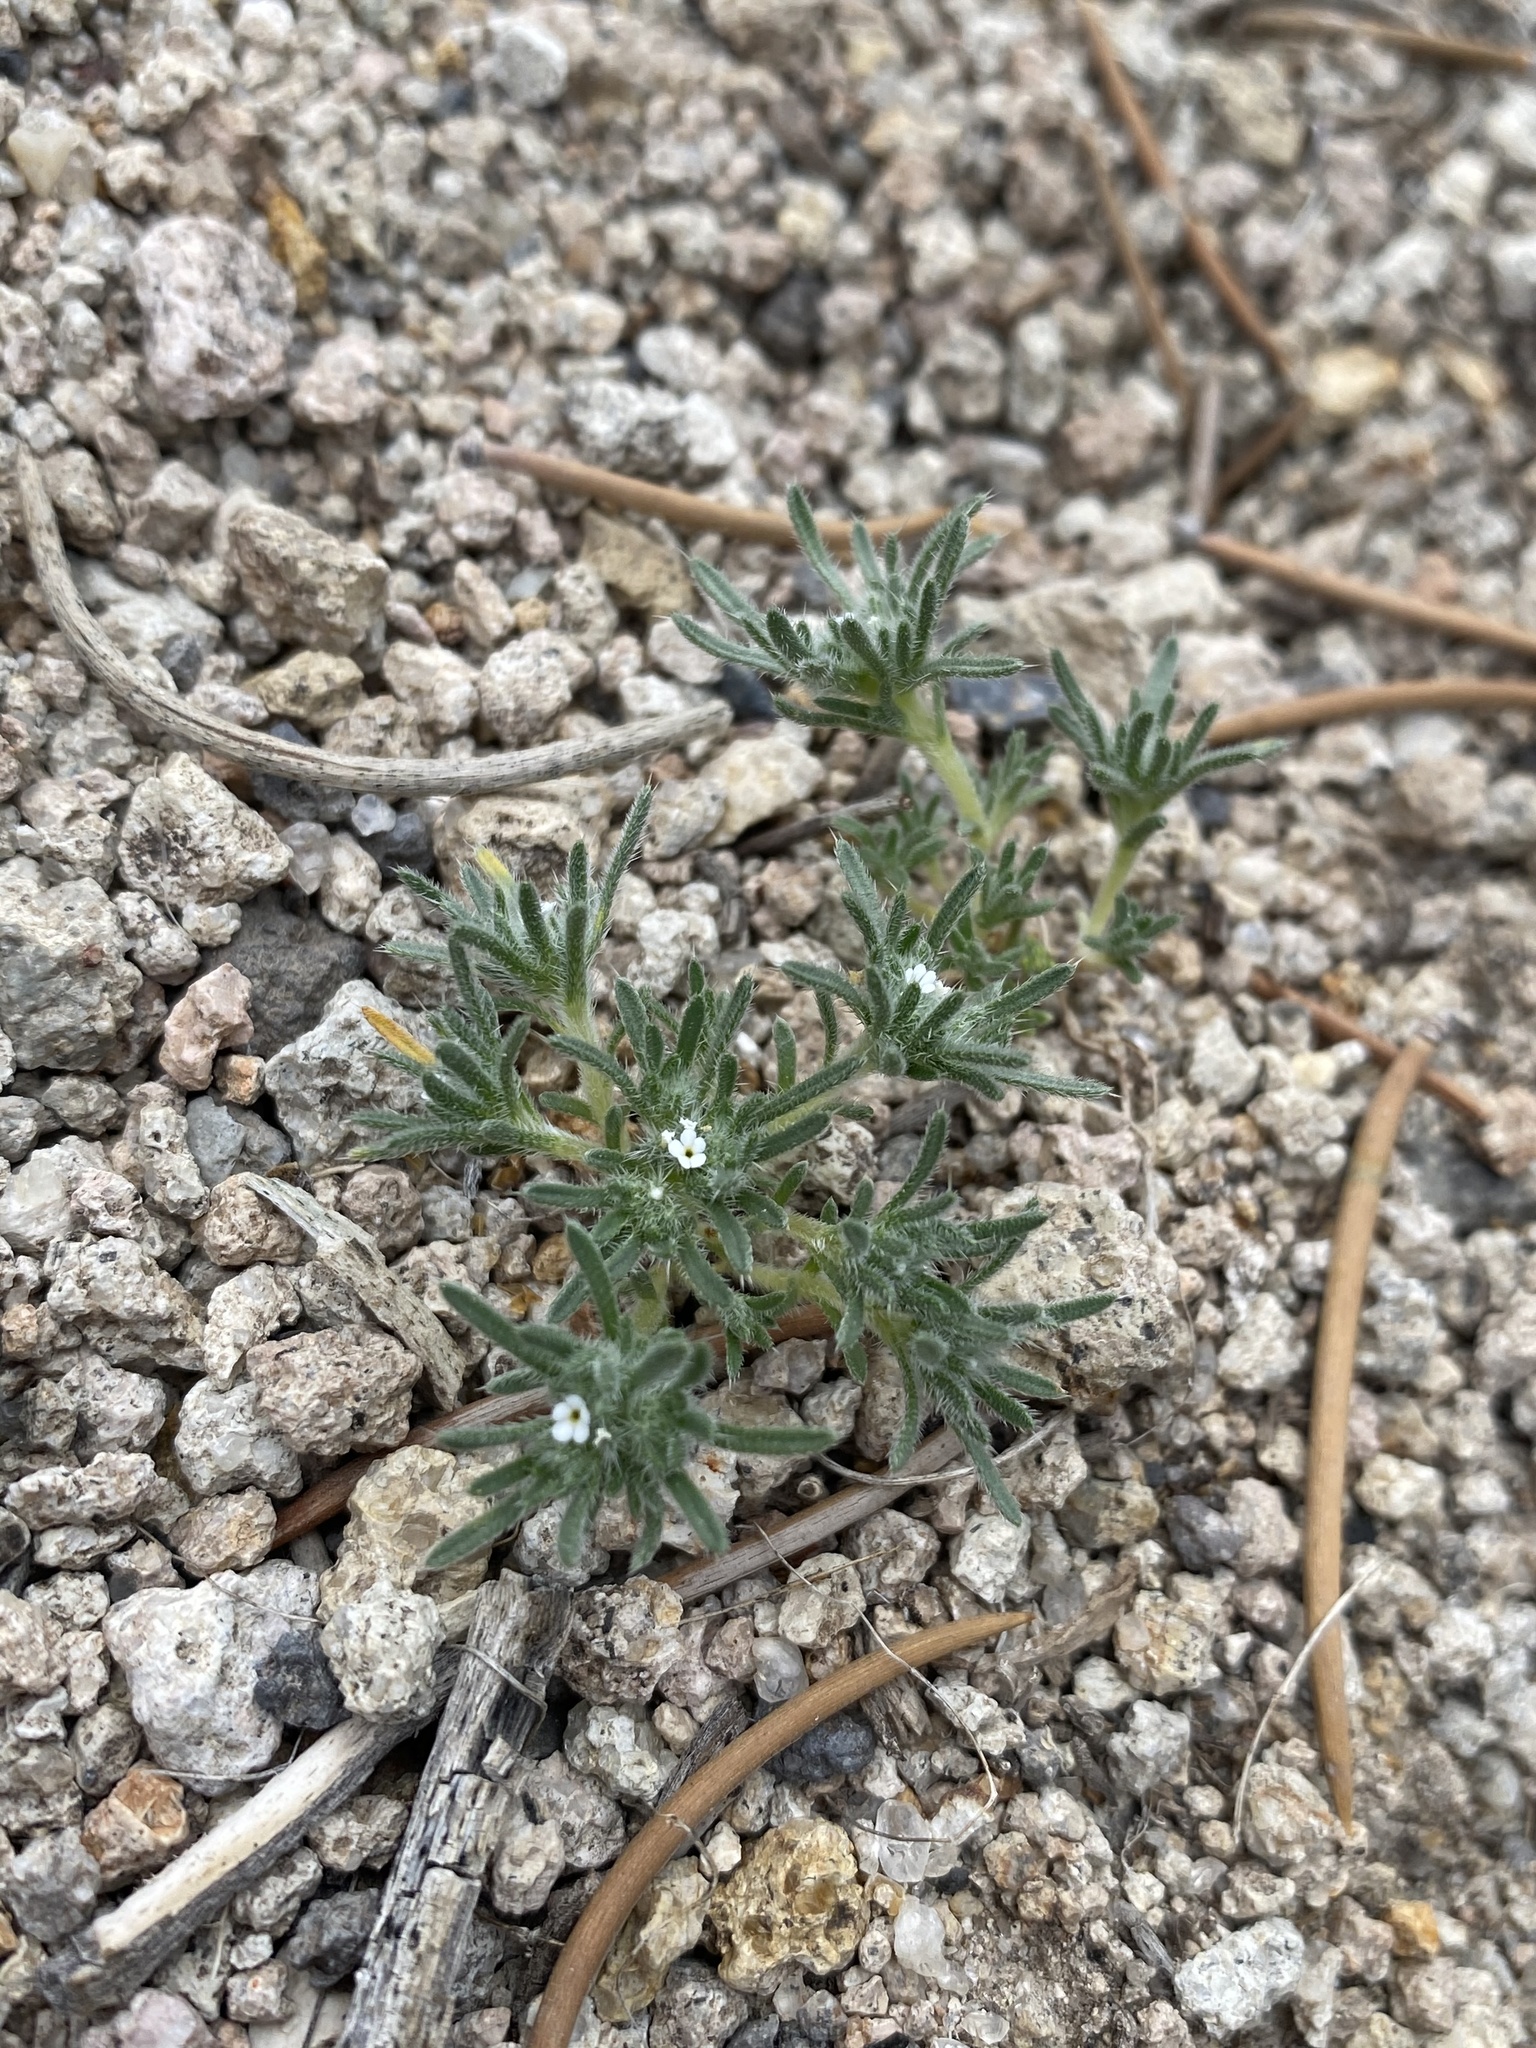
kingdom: Plantae
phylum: Tracheophyta
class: Magnoliopsida
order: Boraginales
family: Boraginaceae
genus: Greeneocharis
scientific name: Greeneocharis circumscissa
